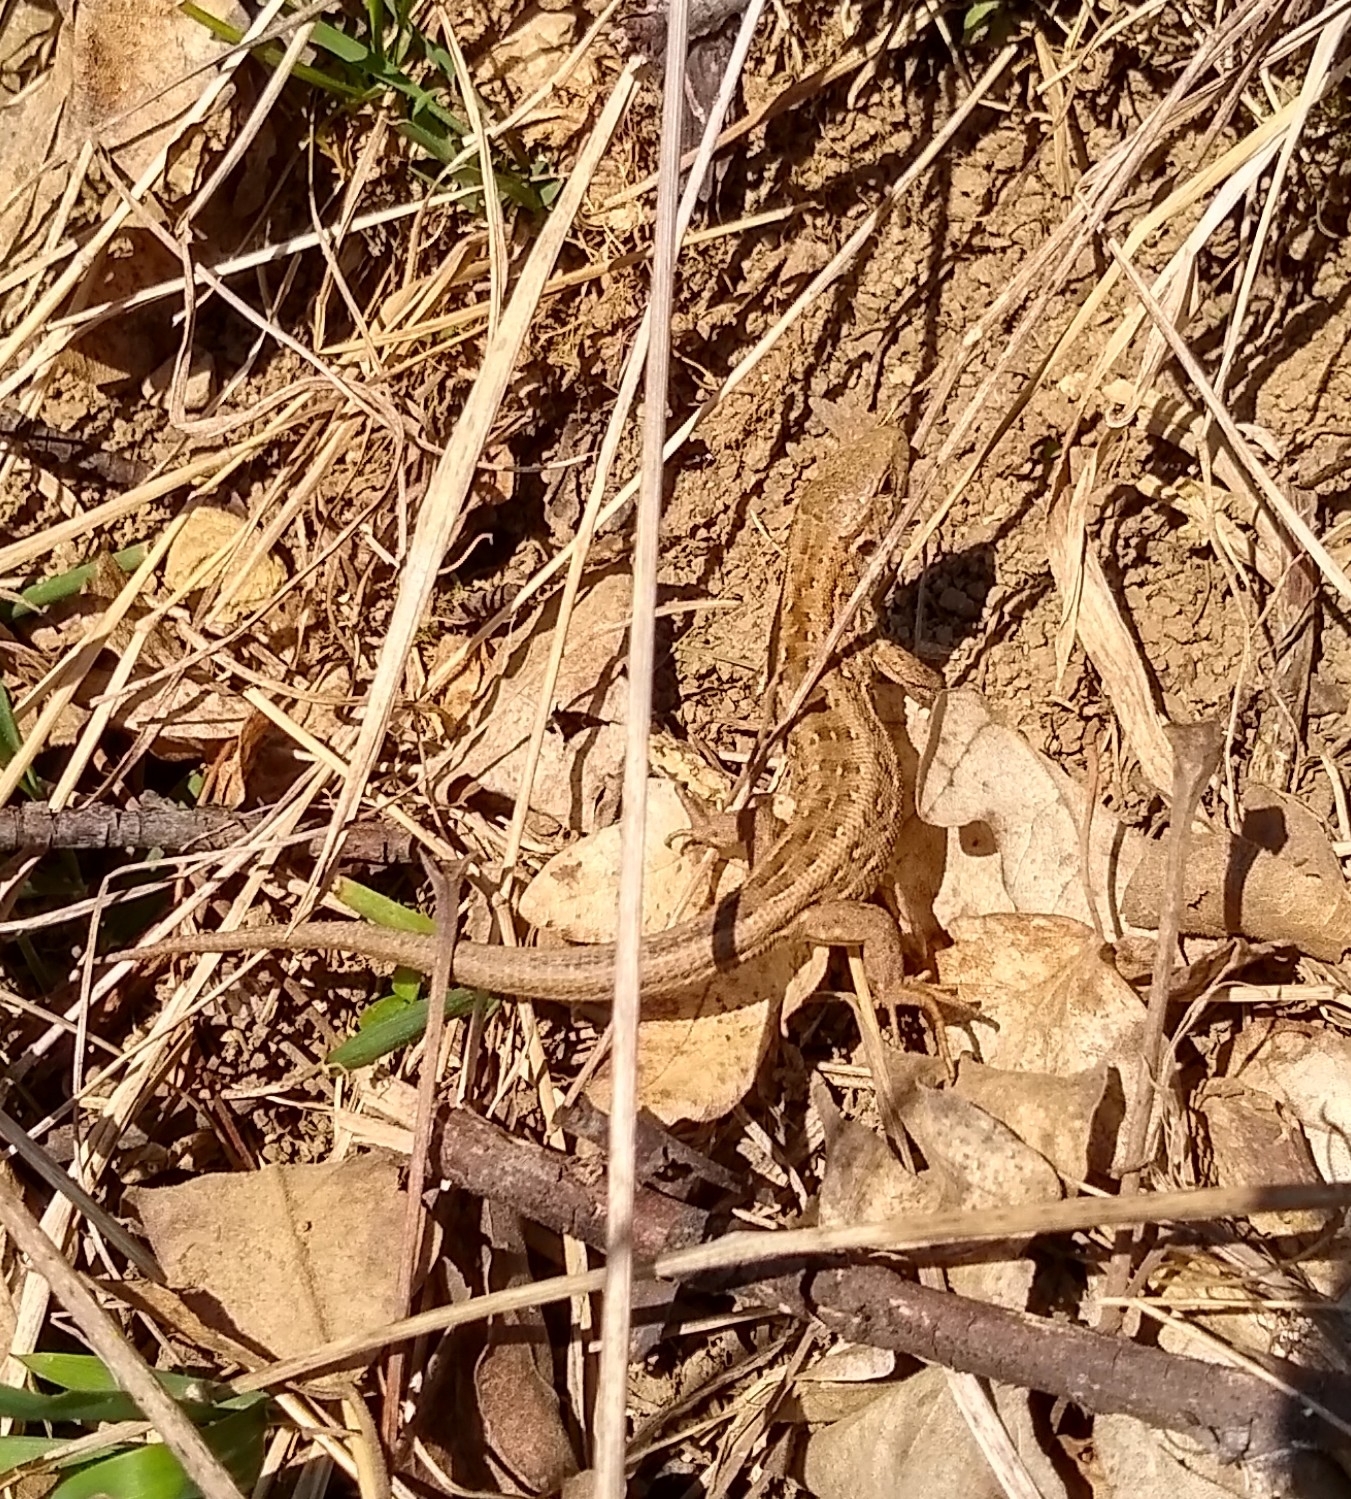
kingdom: Animalia
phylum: Chordata
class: Squamata
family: Lacertidae
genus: Lacerta
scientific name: Lacerta agilis
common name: Sand lizard
